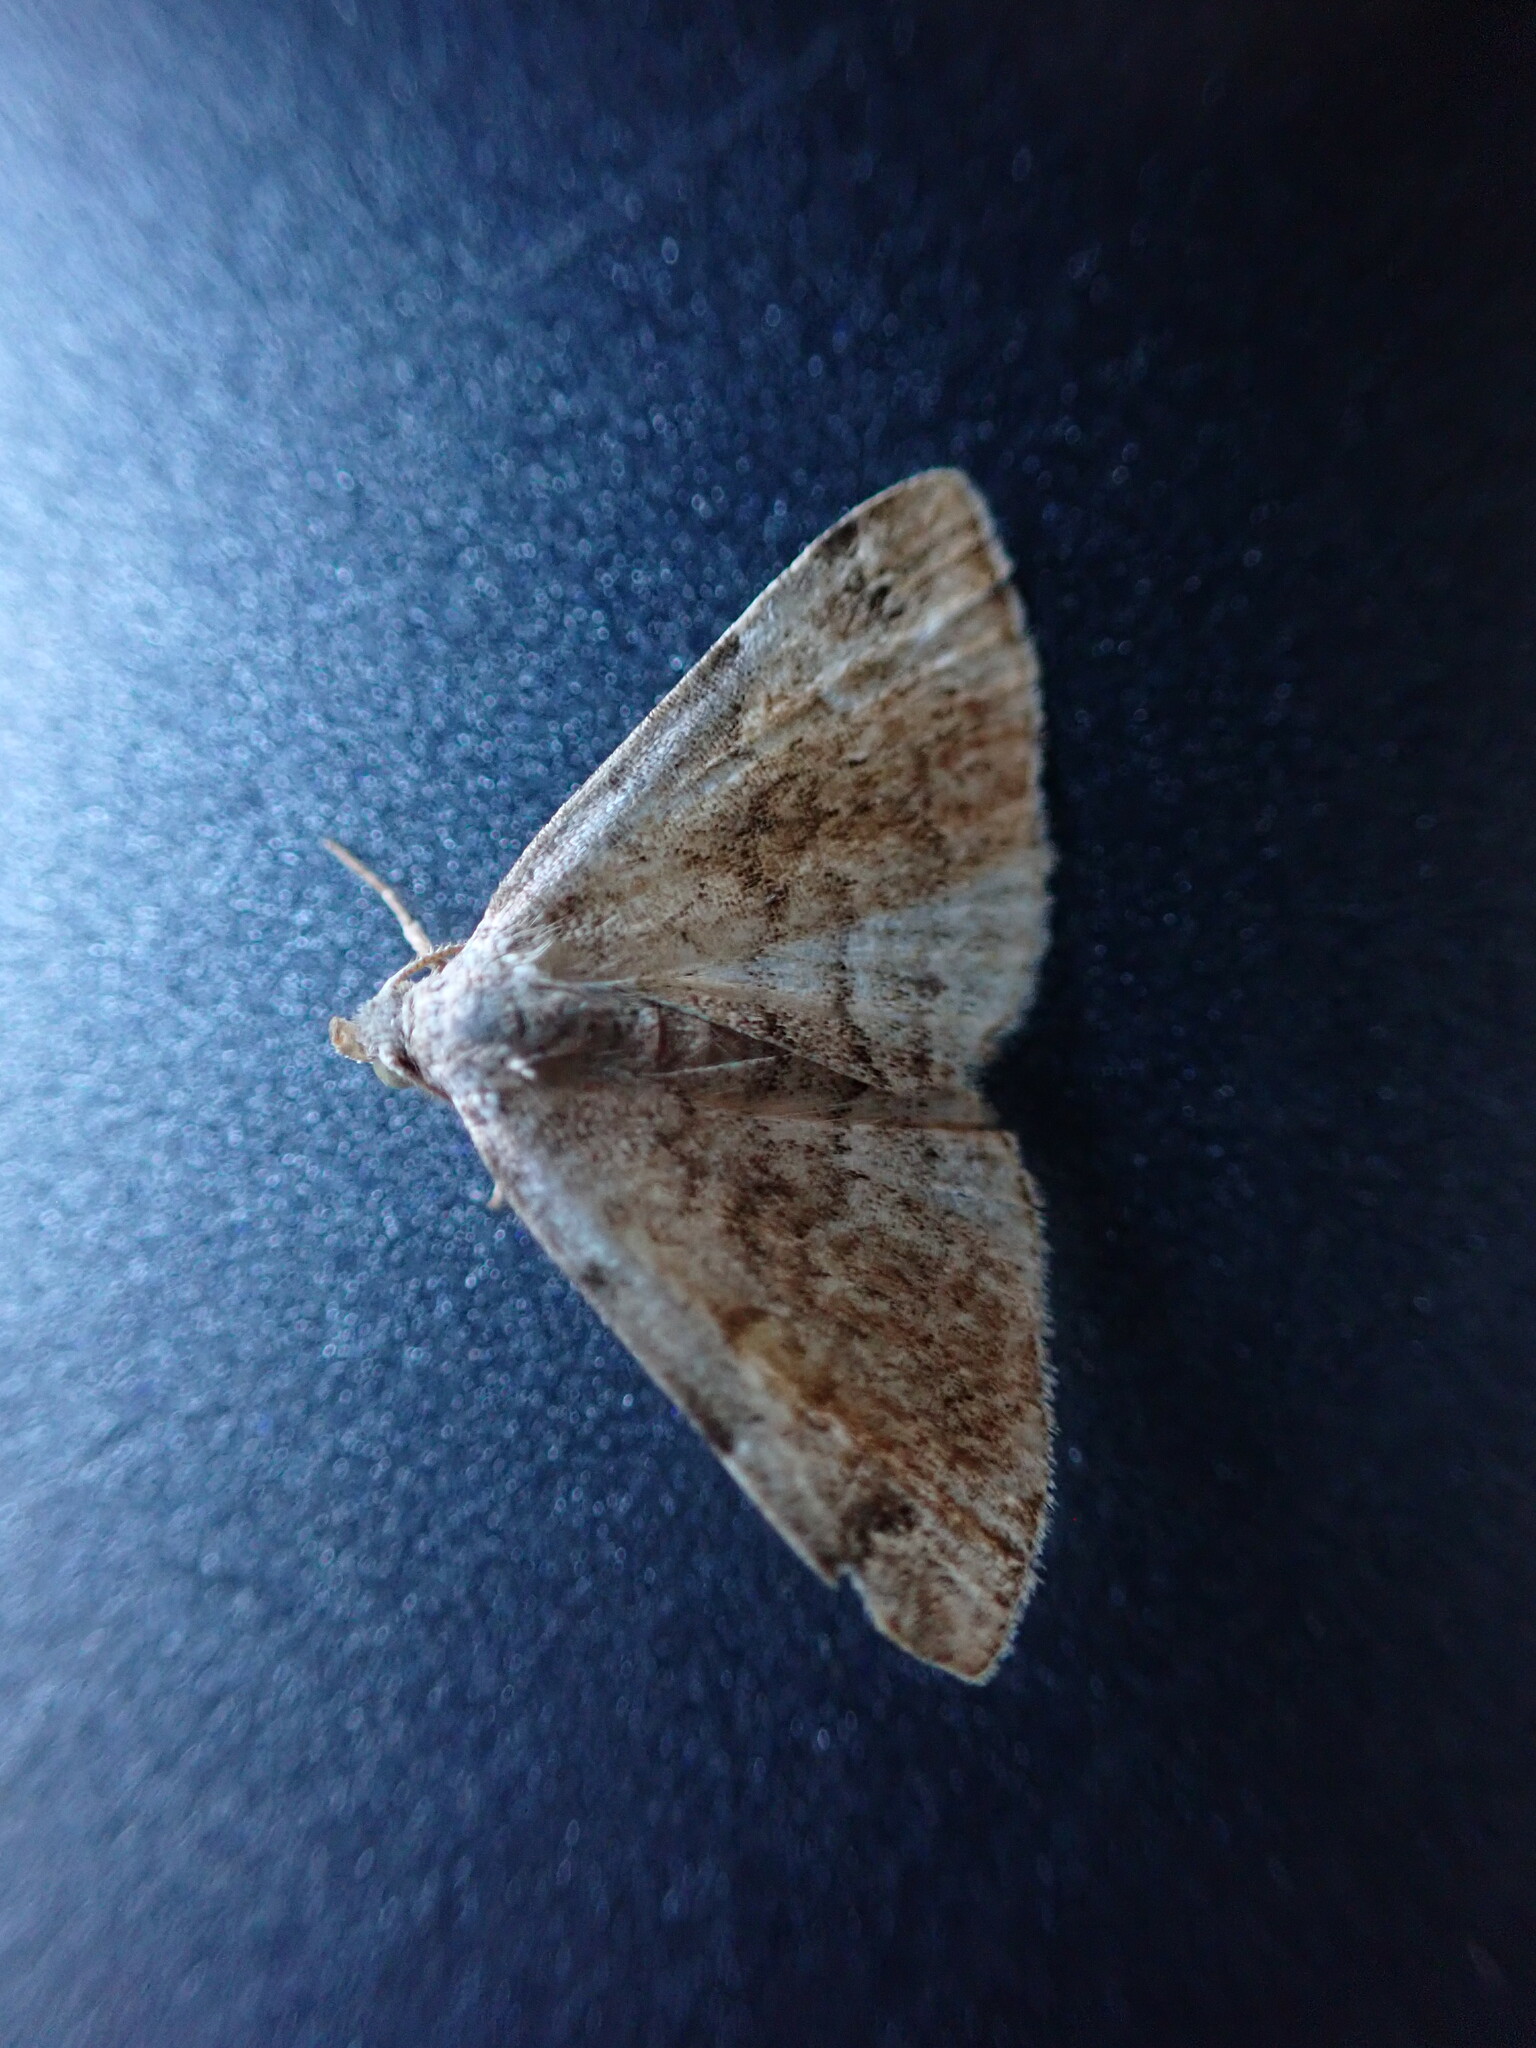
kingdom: Animalia
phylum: Arthropoda
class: Insecta
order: Lepidoptera
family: Erebidae
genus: Idia
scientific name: Idia americalis
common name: American idia moth
